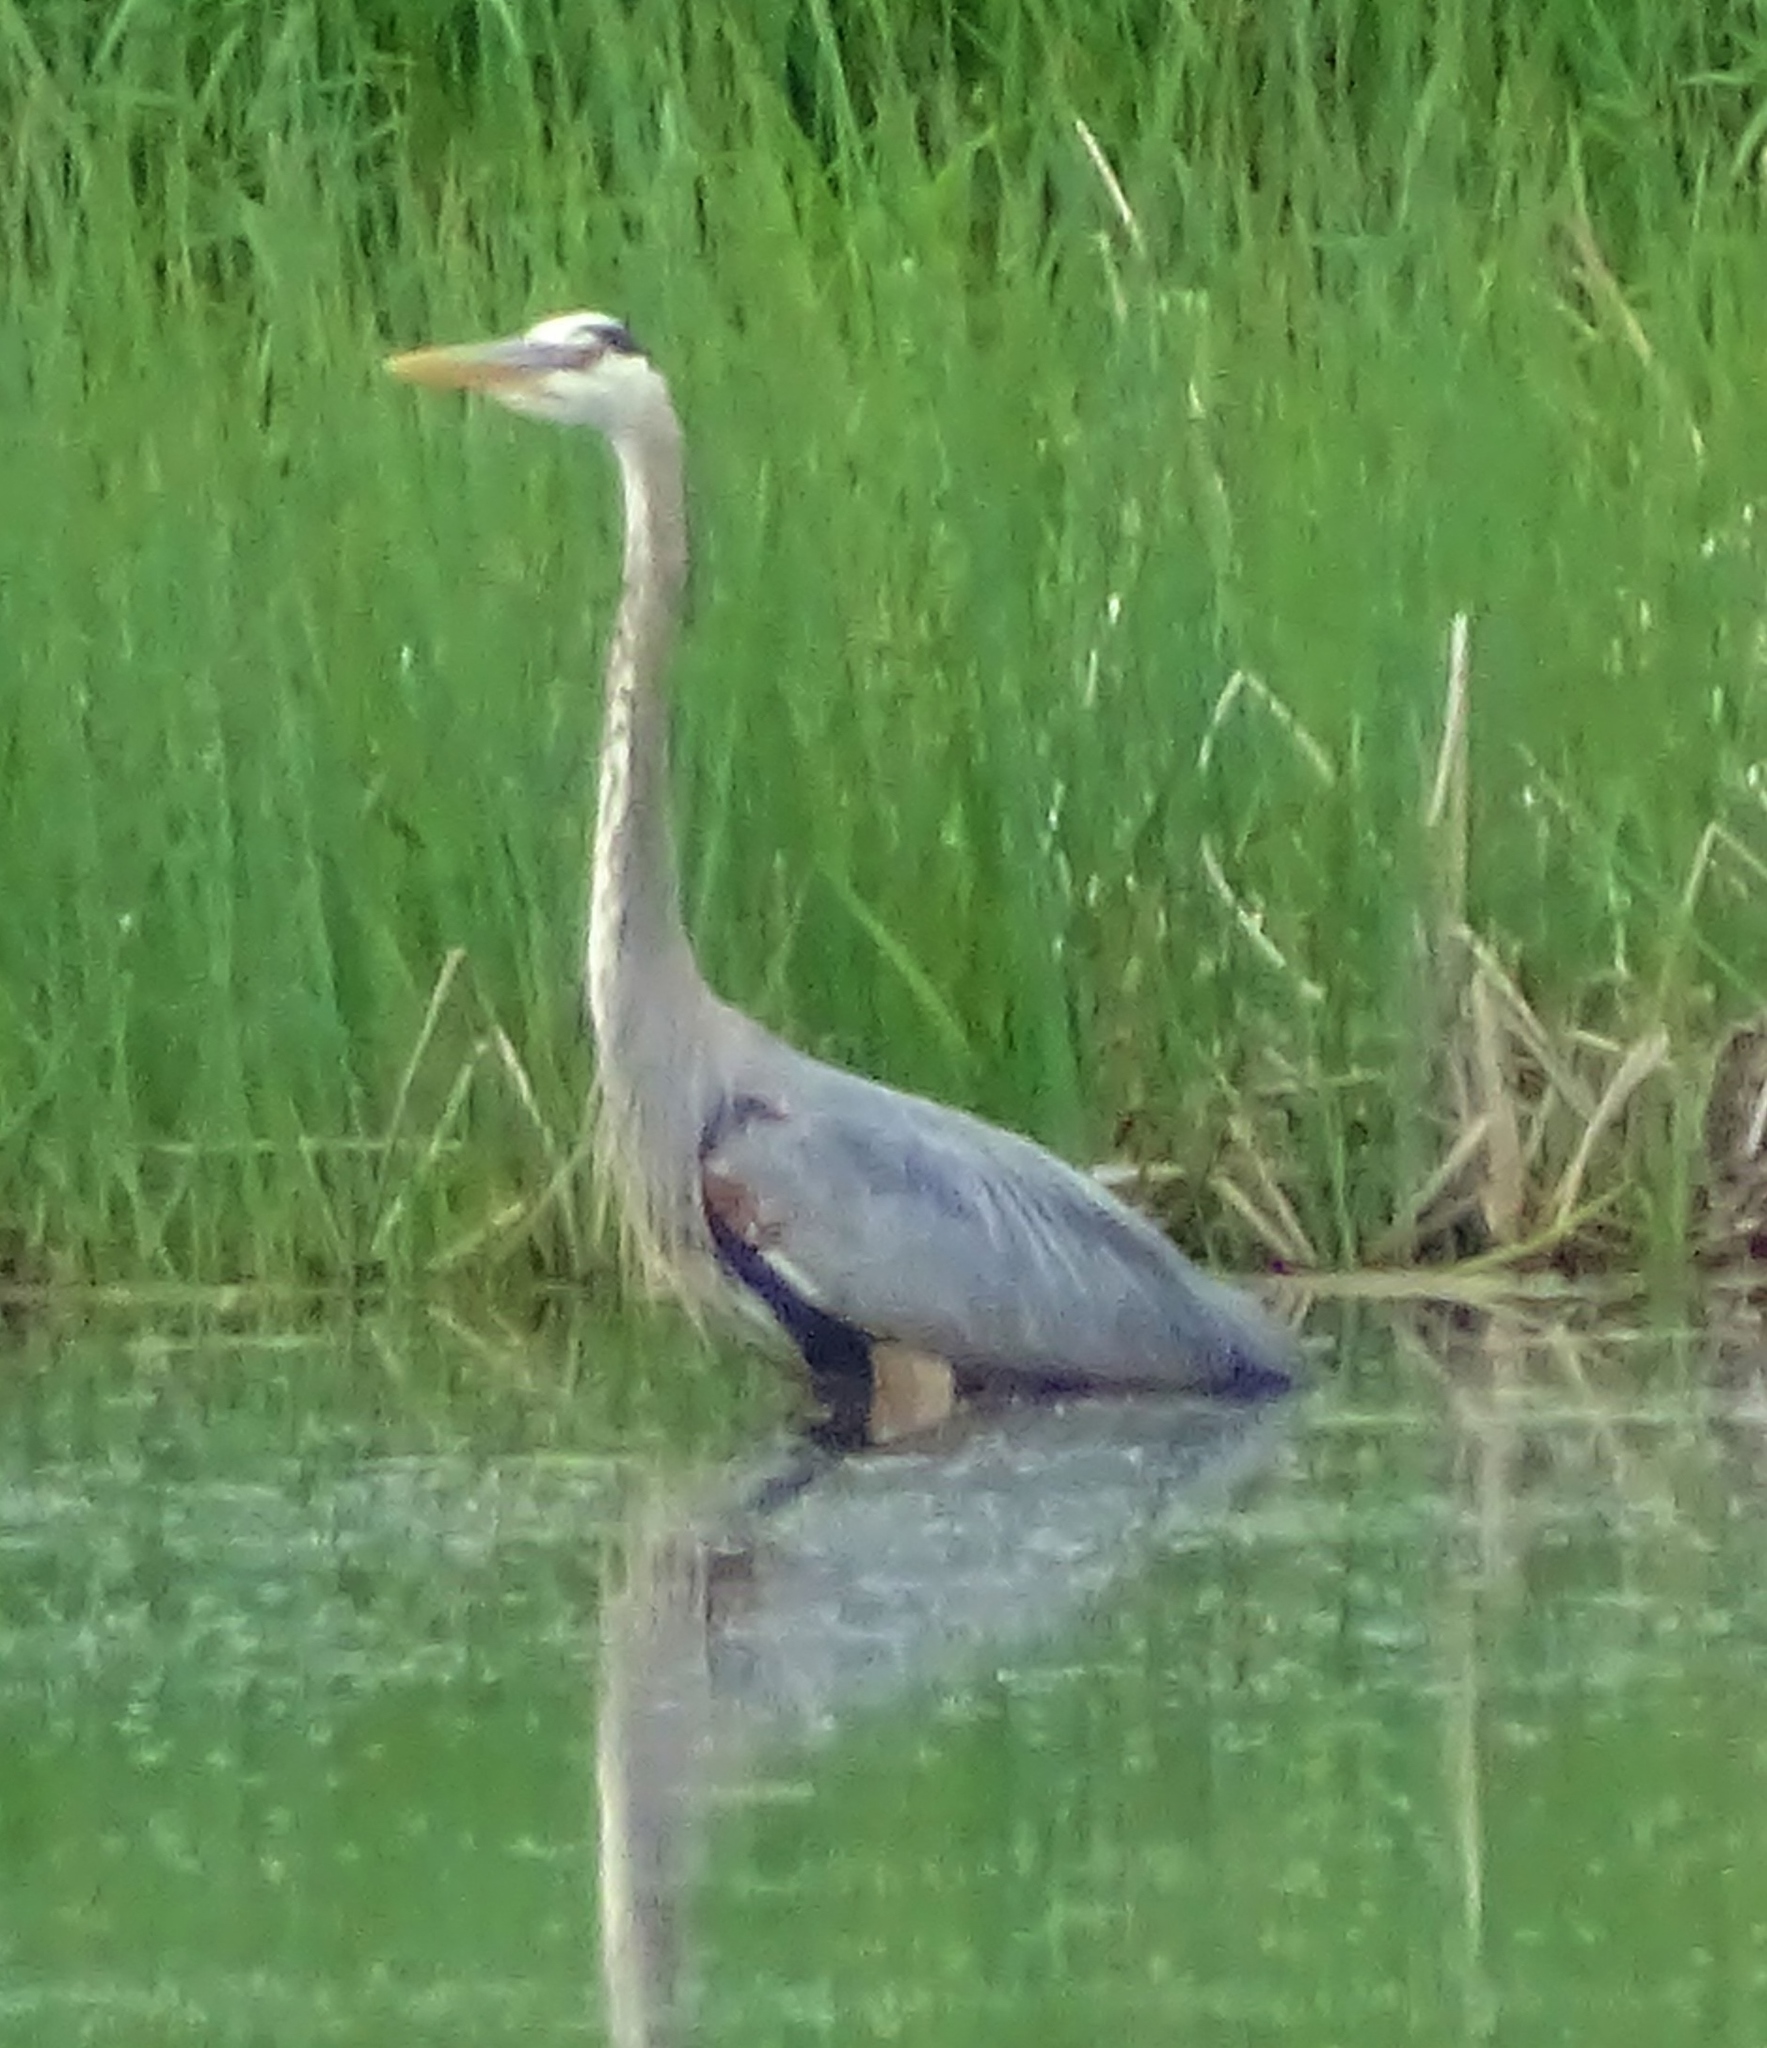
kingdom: Animalia
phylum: Chordata
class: Aves
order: Pelecaniformes
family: Ardeidae
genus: Ardea
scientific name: Ardea herodias
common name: Great blue heron
